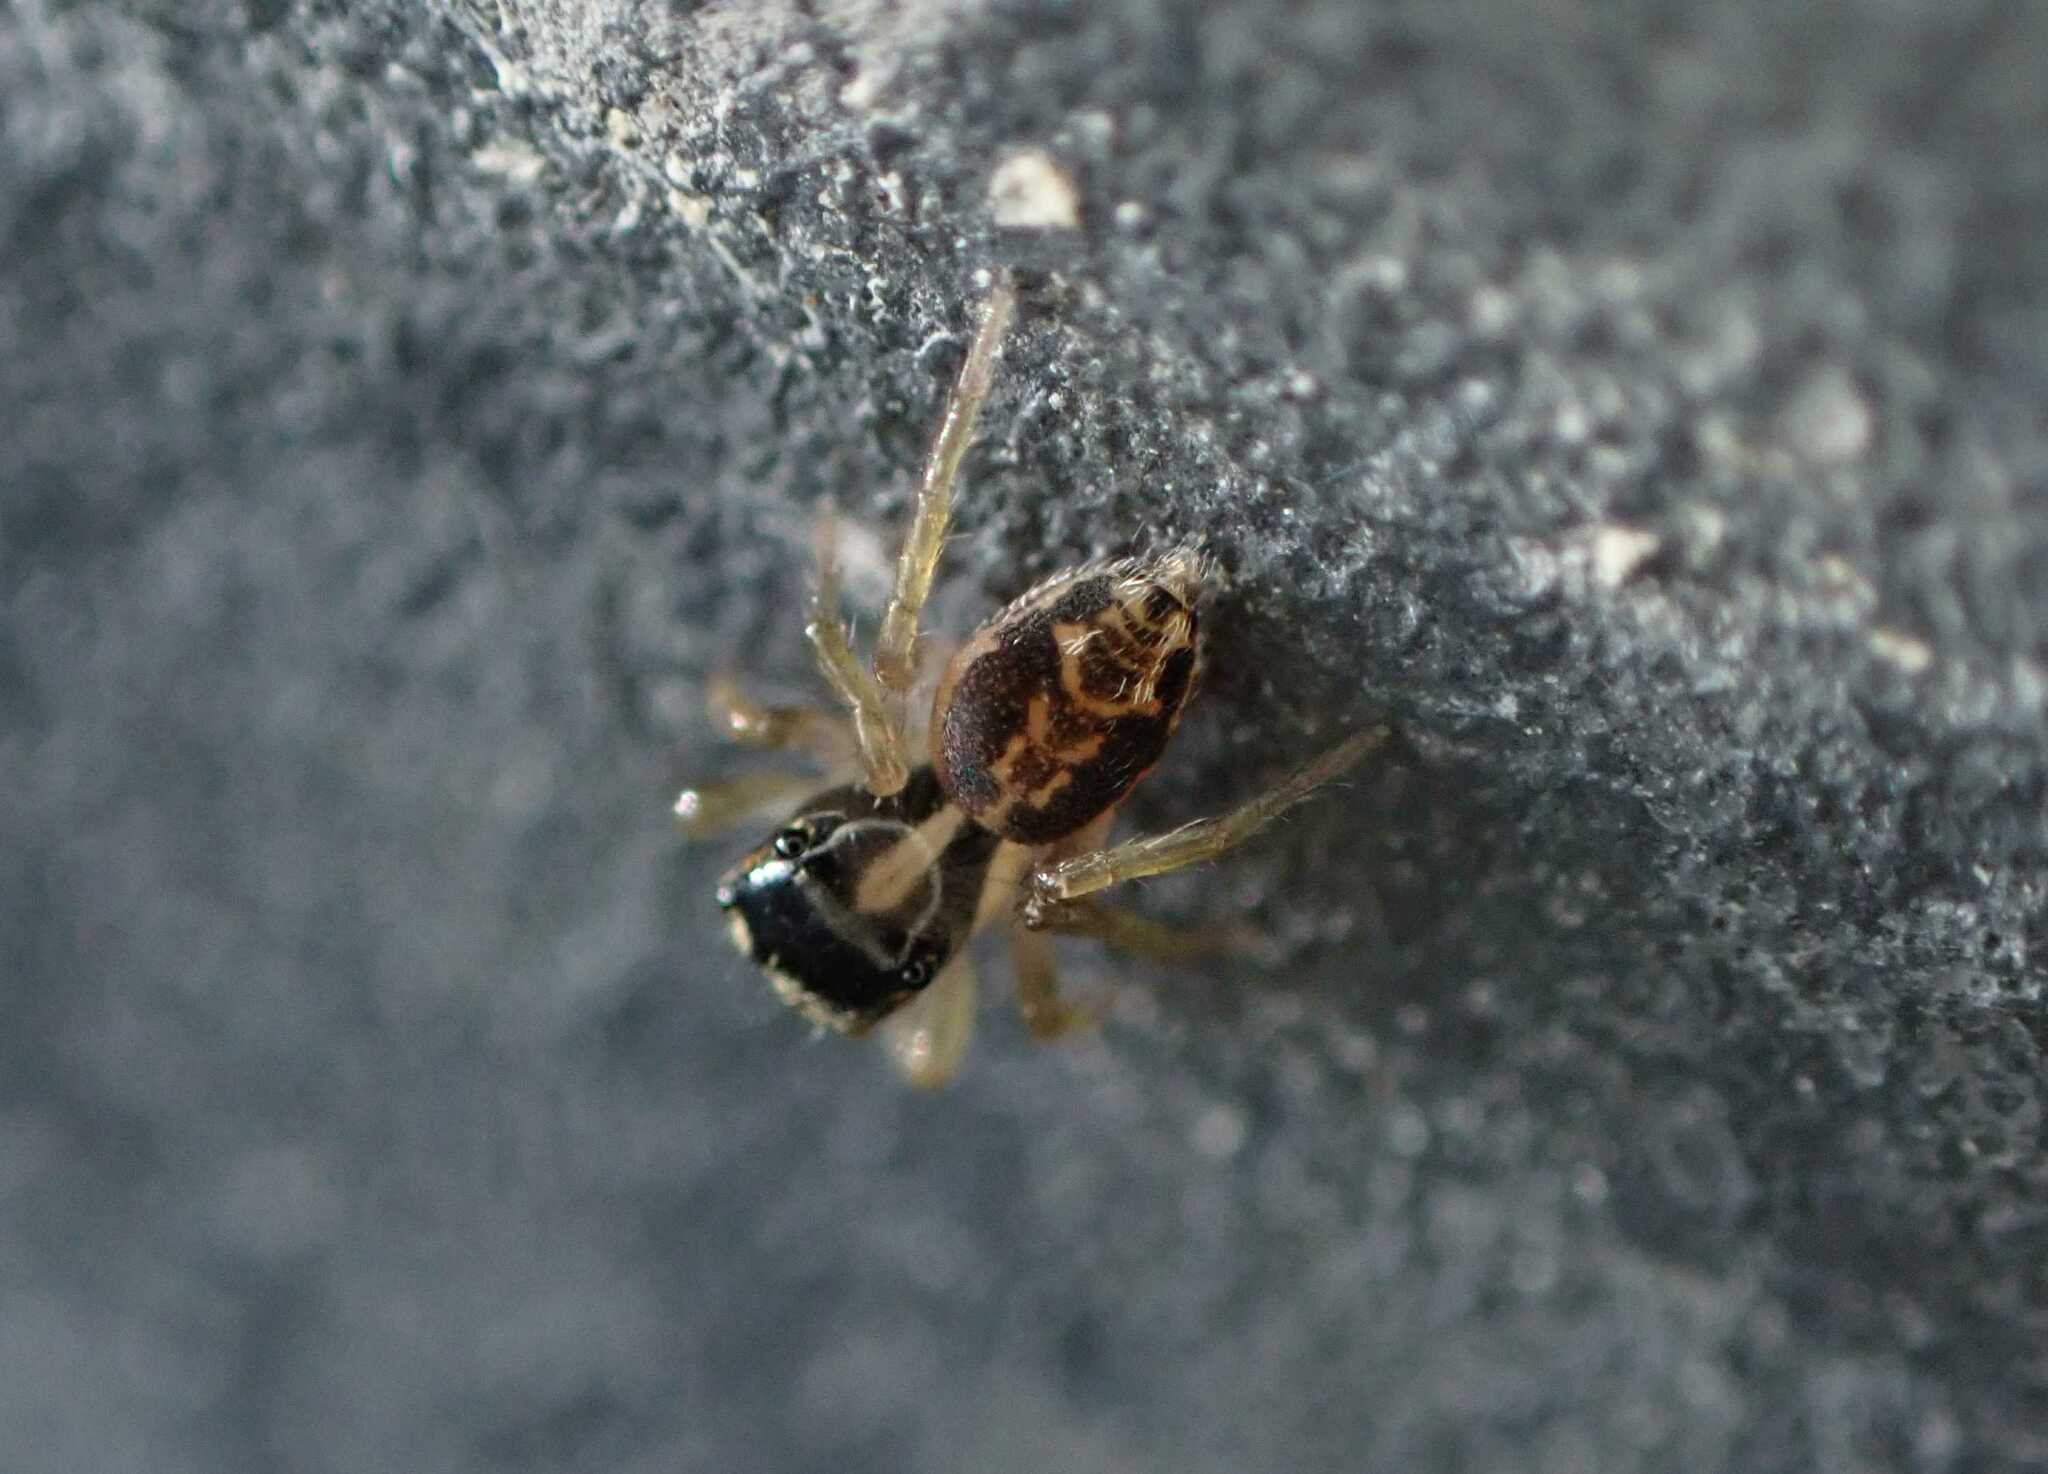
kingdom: Animalia
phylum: Arthropoda
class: Arachnida
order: Araneae
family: Salticidae
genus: Hasarius
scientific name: Hasarius adansoni
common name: Jumping spider
